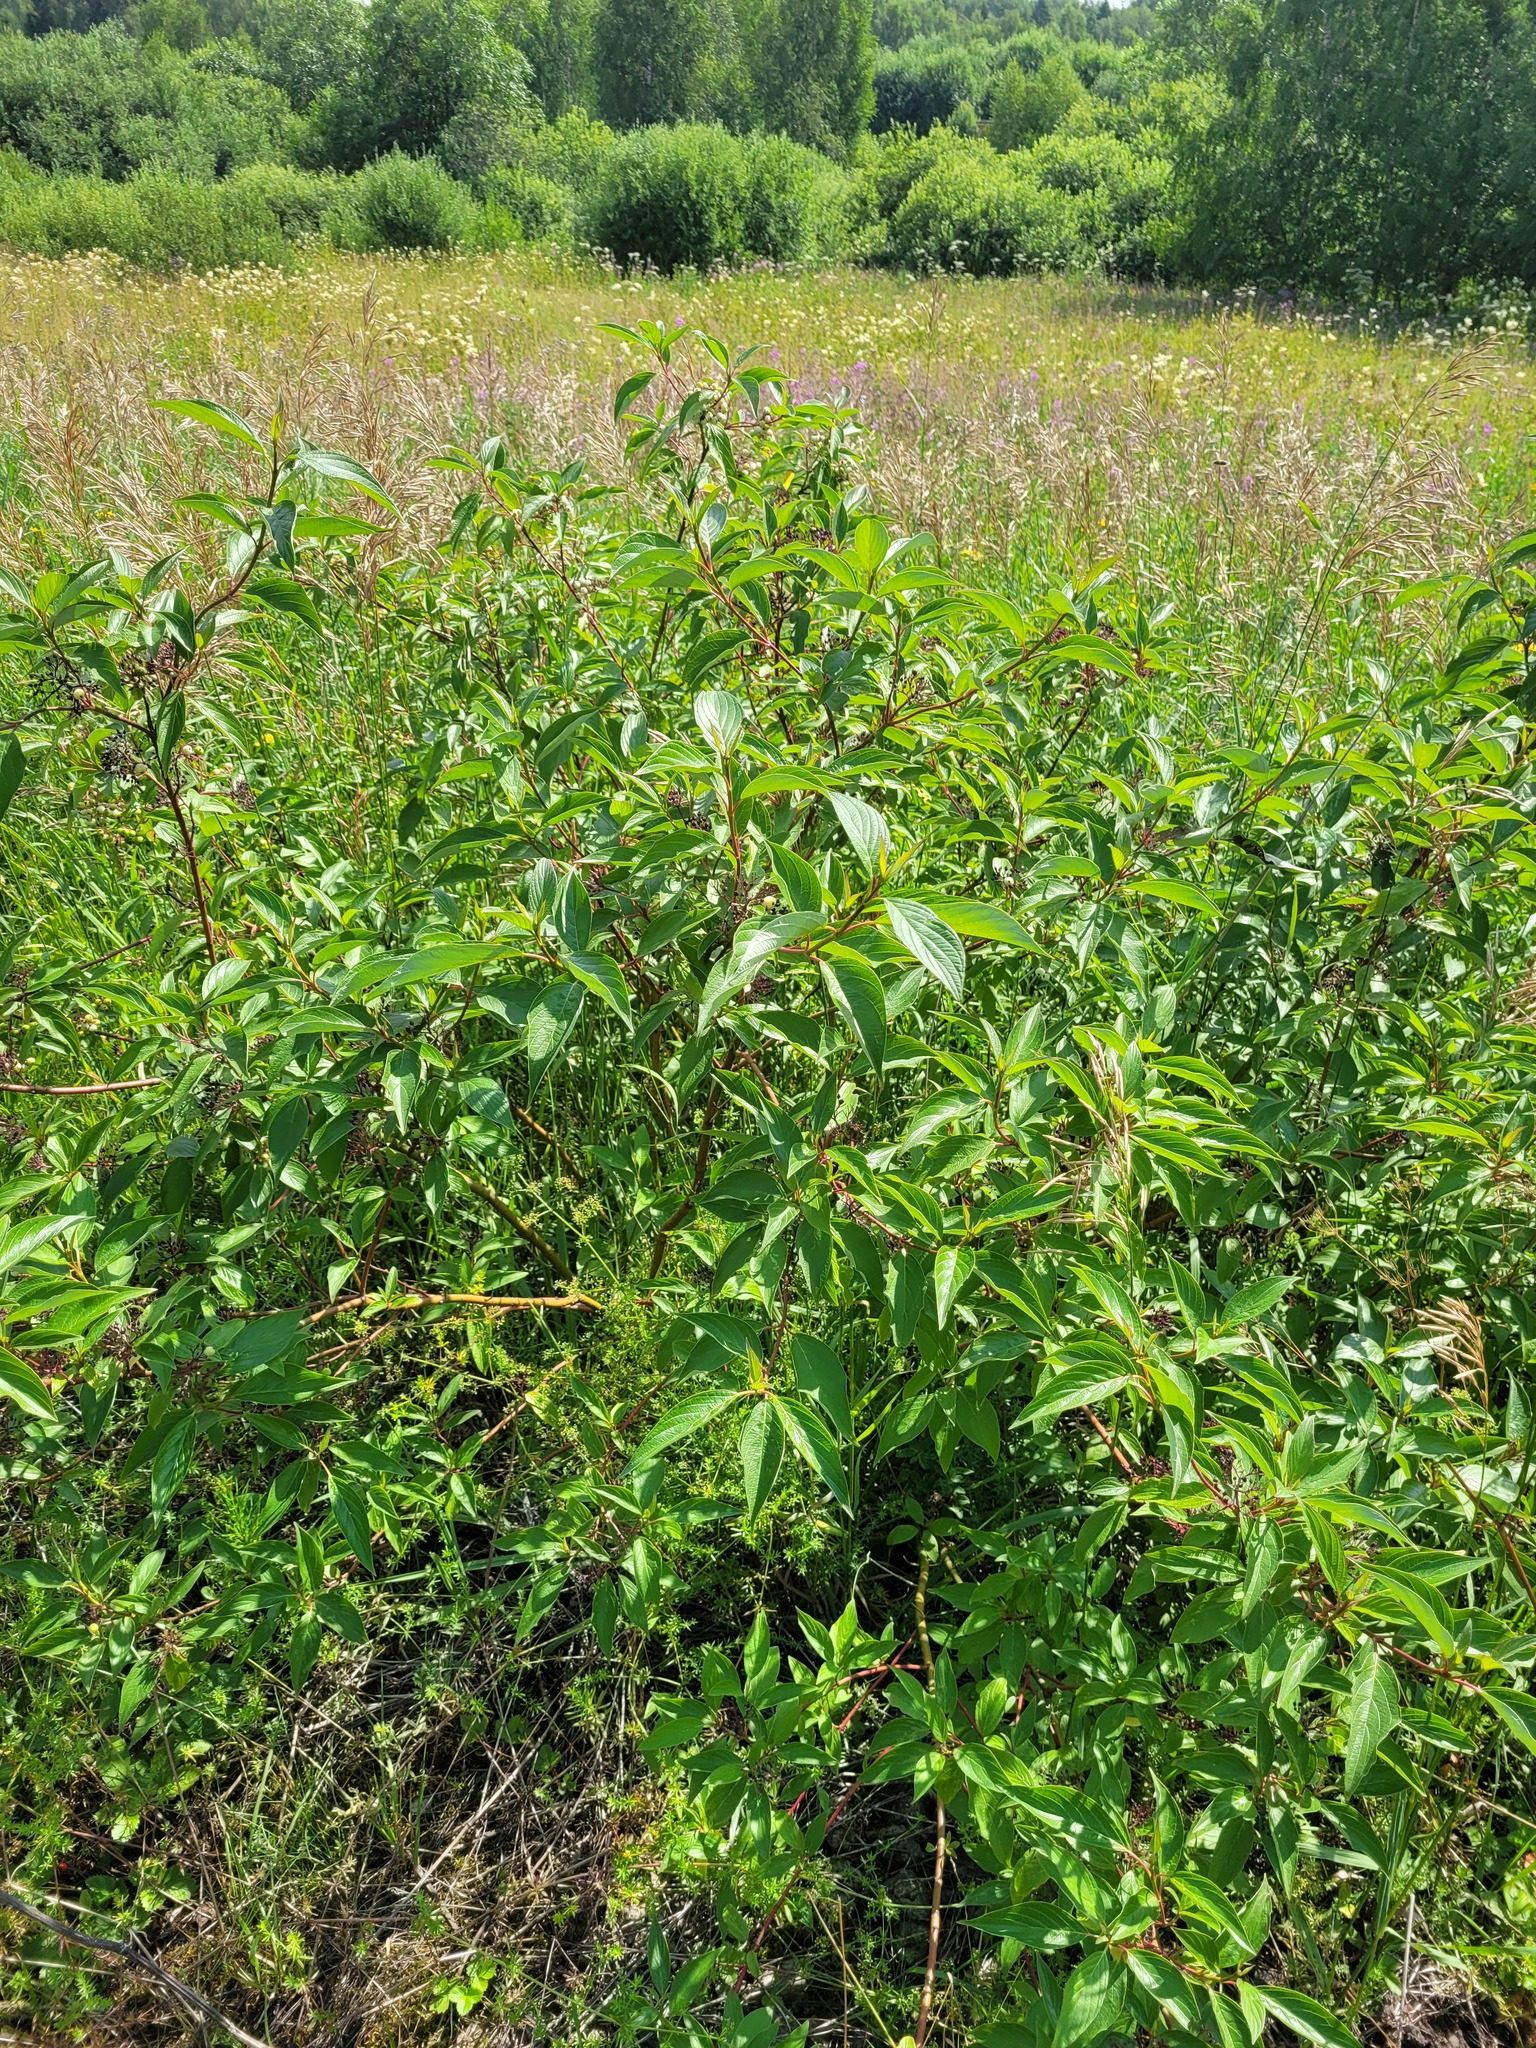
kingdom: Plantae
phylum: Tracheophyta
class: Magnoliopsida
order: Cornales
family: Cornaceae
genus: Cornus
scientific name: Cornus alba
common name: White dogwood
